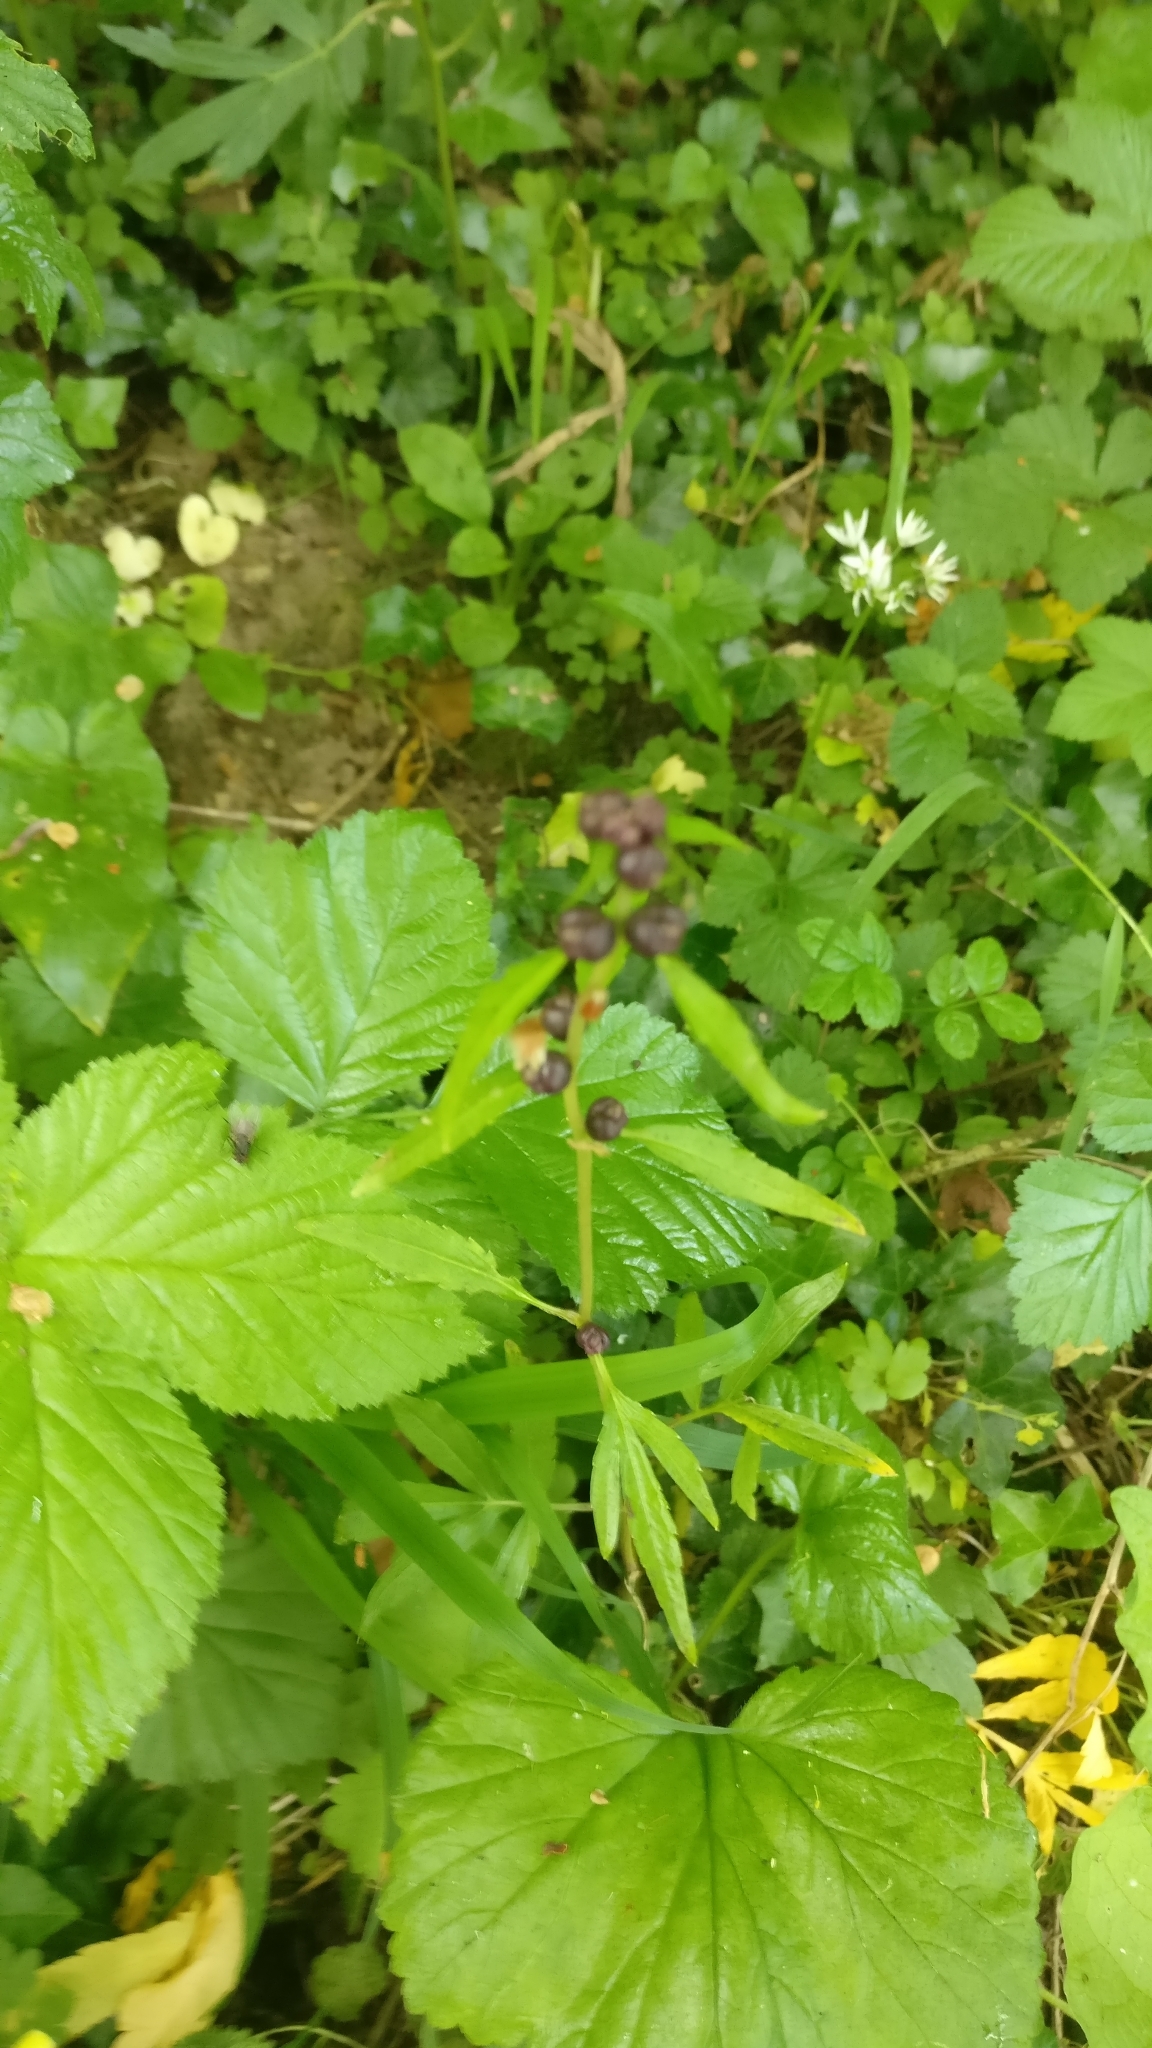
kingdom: Plantae
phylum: Tracheophyta
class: Magnoliopsida
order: Brassicales
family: Brassicaceae
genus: Cardamine
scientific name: Cardamine bulbifera
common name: Coralroot bittercress
